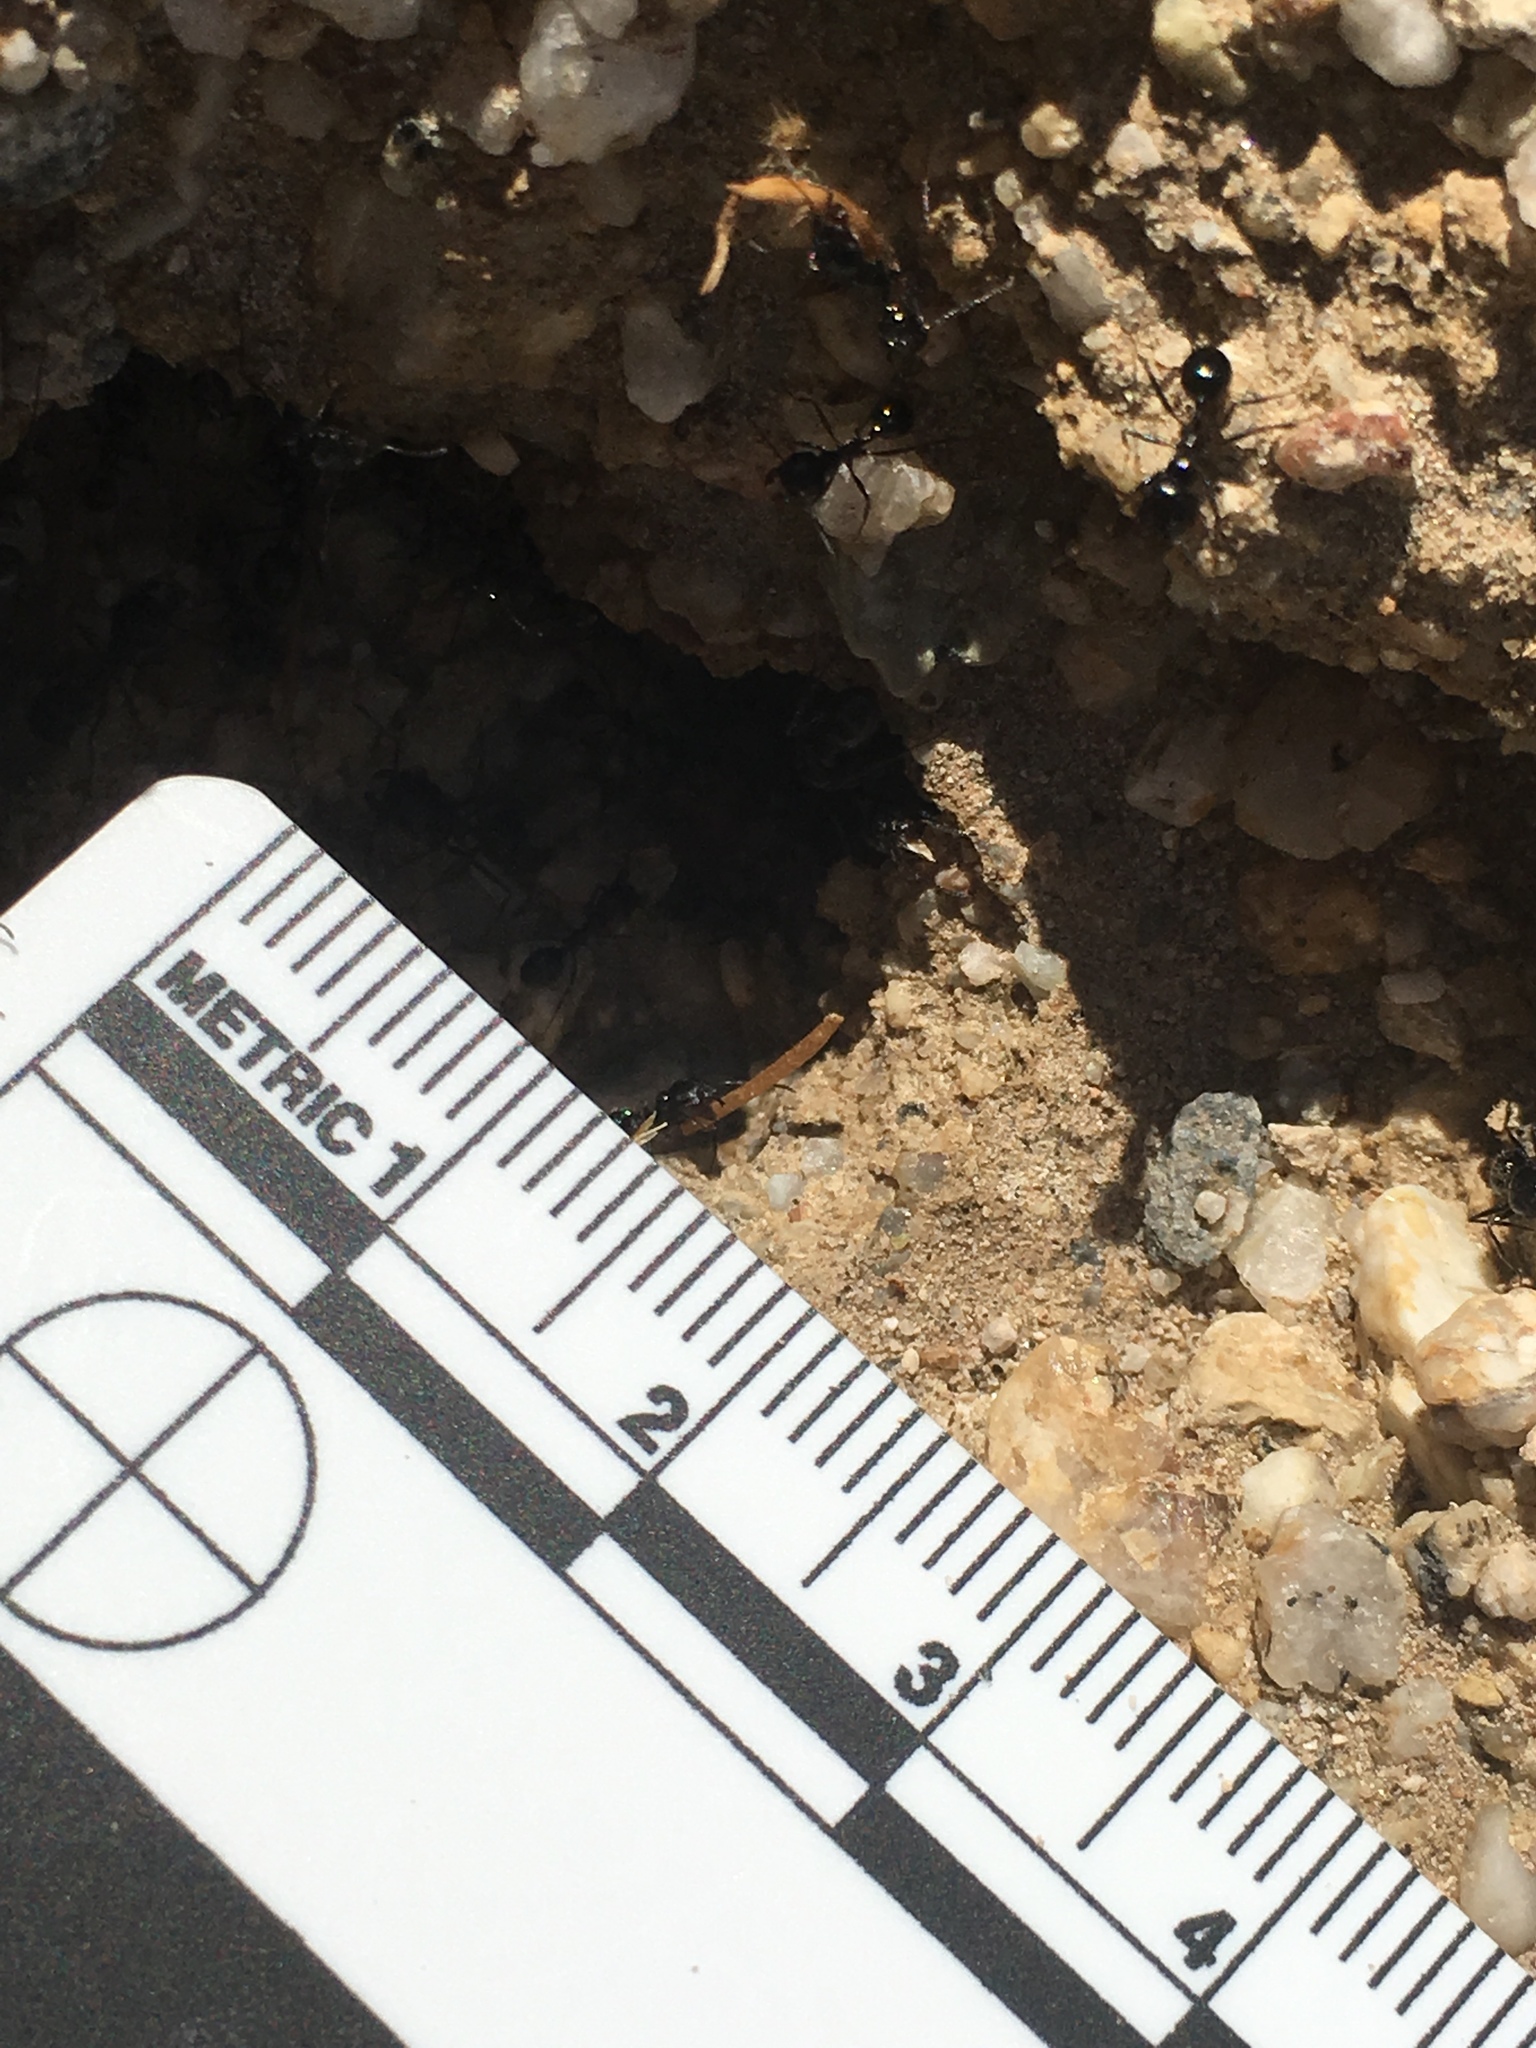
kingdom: Animalia
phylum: Arthropoda
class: Insecta
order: Hymenoptera
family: Formicidae
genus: Messor
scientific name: Messor pergandei
